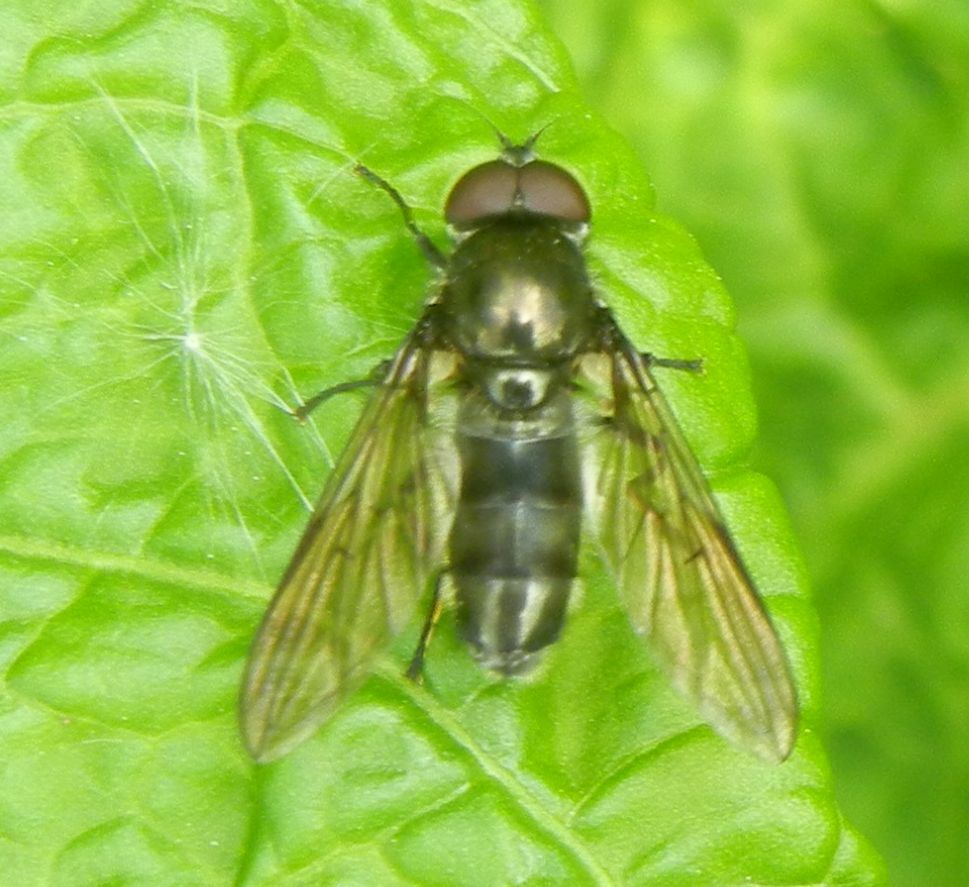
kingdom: Animalia
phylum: Arthropoda
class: Insecta
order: Diptera
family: Syrphidae
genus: Cheilosia
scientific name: Cheilosia variabilis
